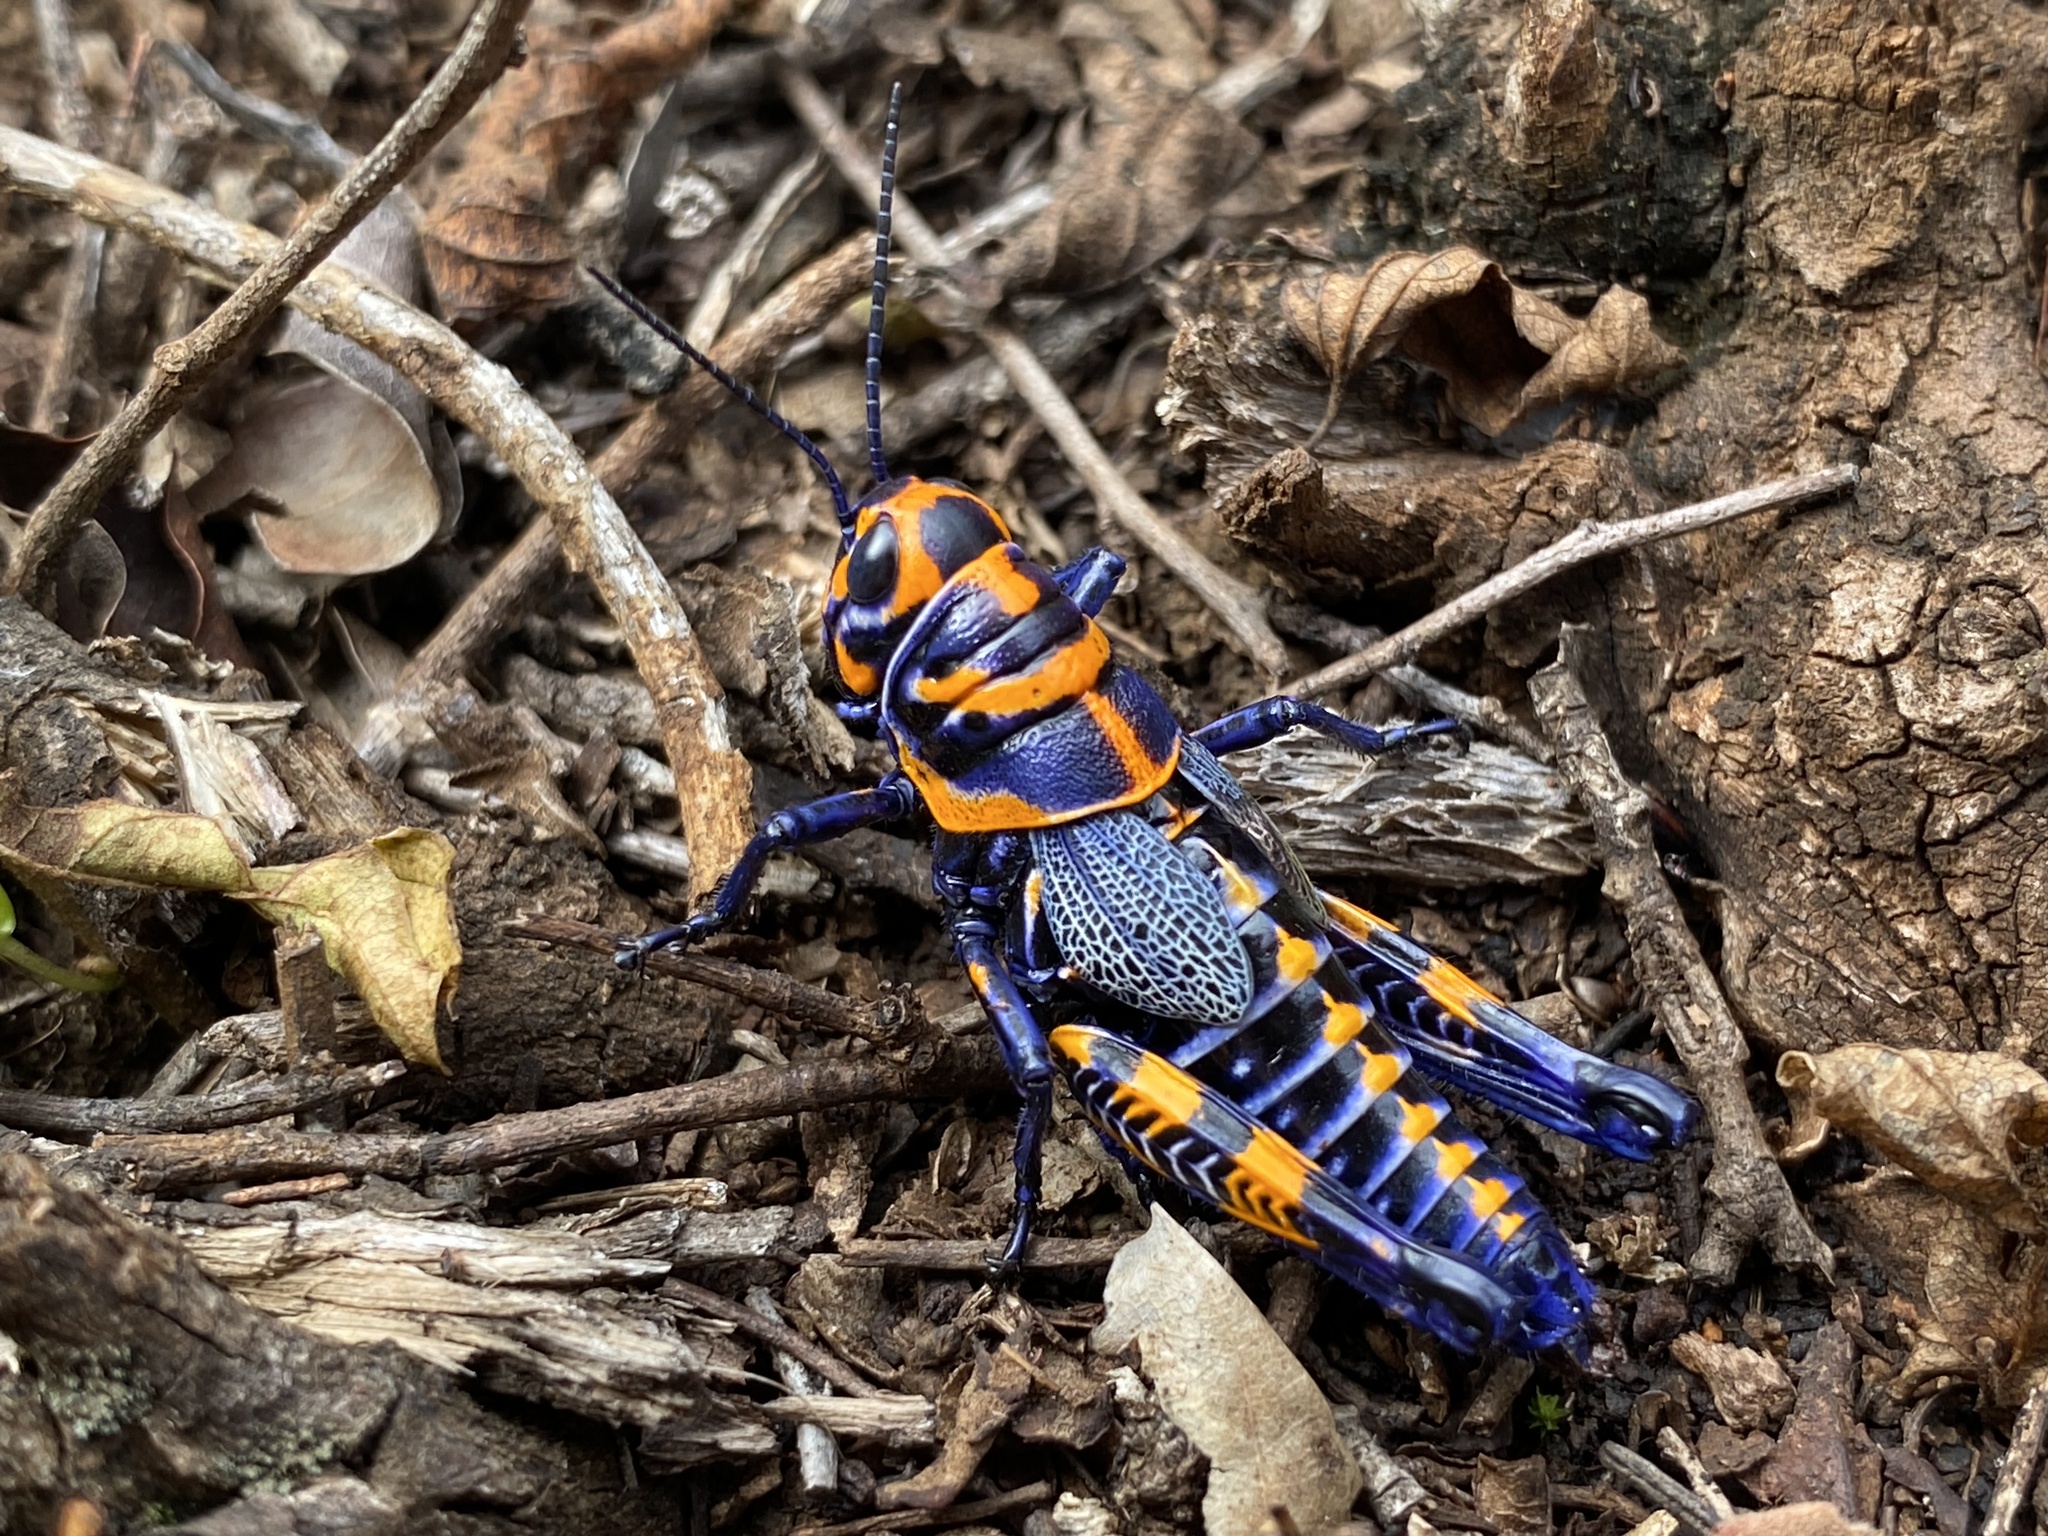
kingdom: Animalia
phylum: Arthropoda
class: Insecta
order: Orthoptera
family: Acrididae
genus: Dactylotum
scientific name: Dactylotum bicolor
